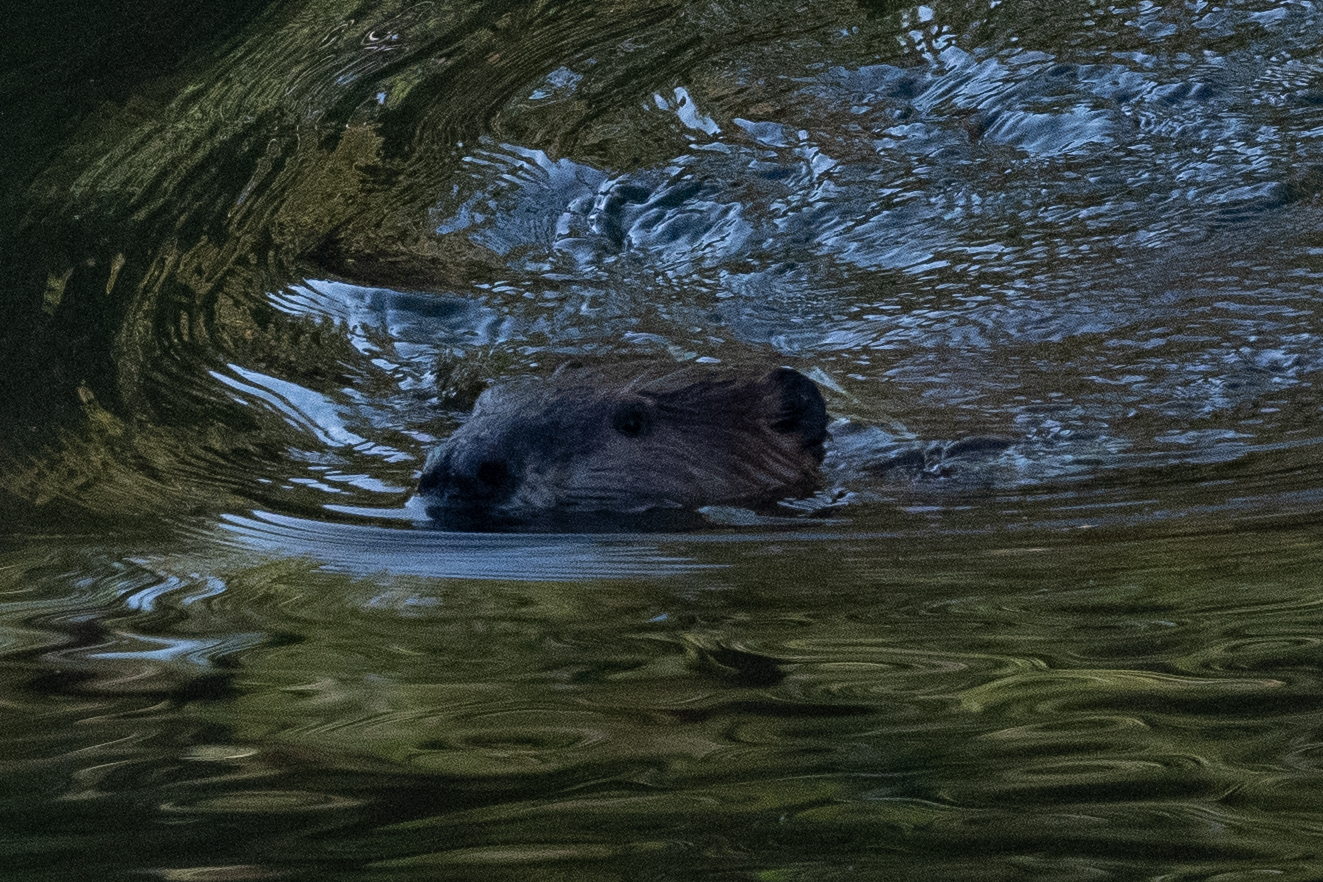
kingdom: Animalia
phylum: Chordata
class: Mammalia
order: Rodentia
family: Castoridae
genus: Castor
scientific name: Castor canadensis
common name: American beaver
